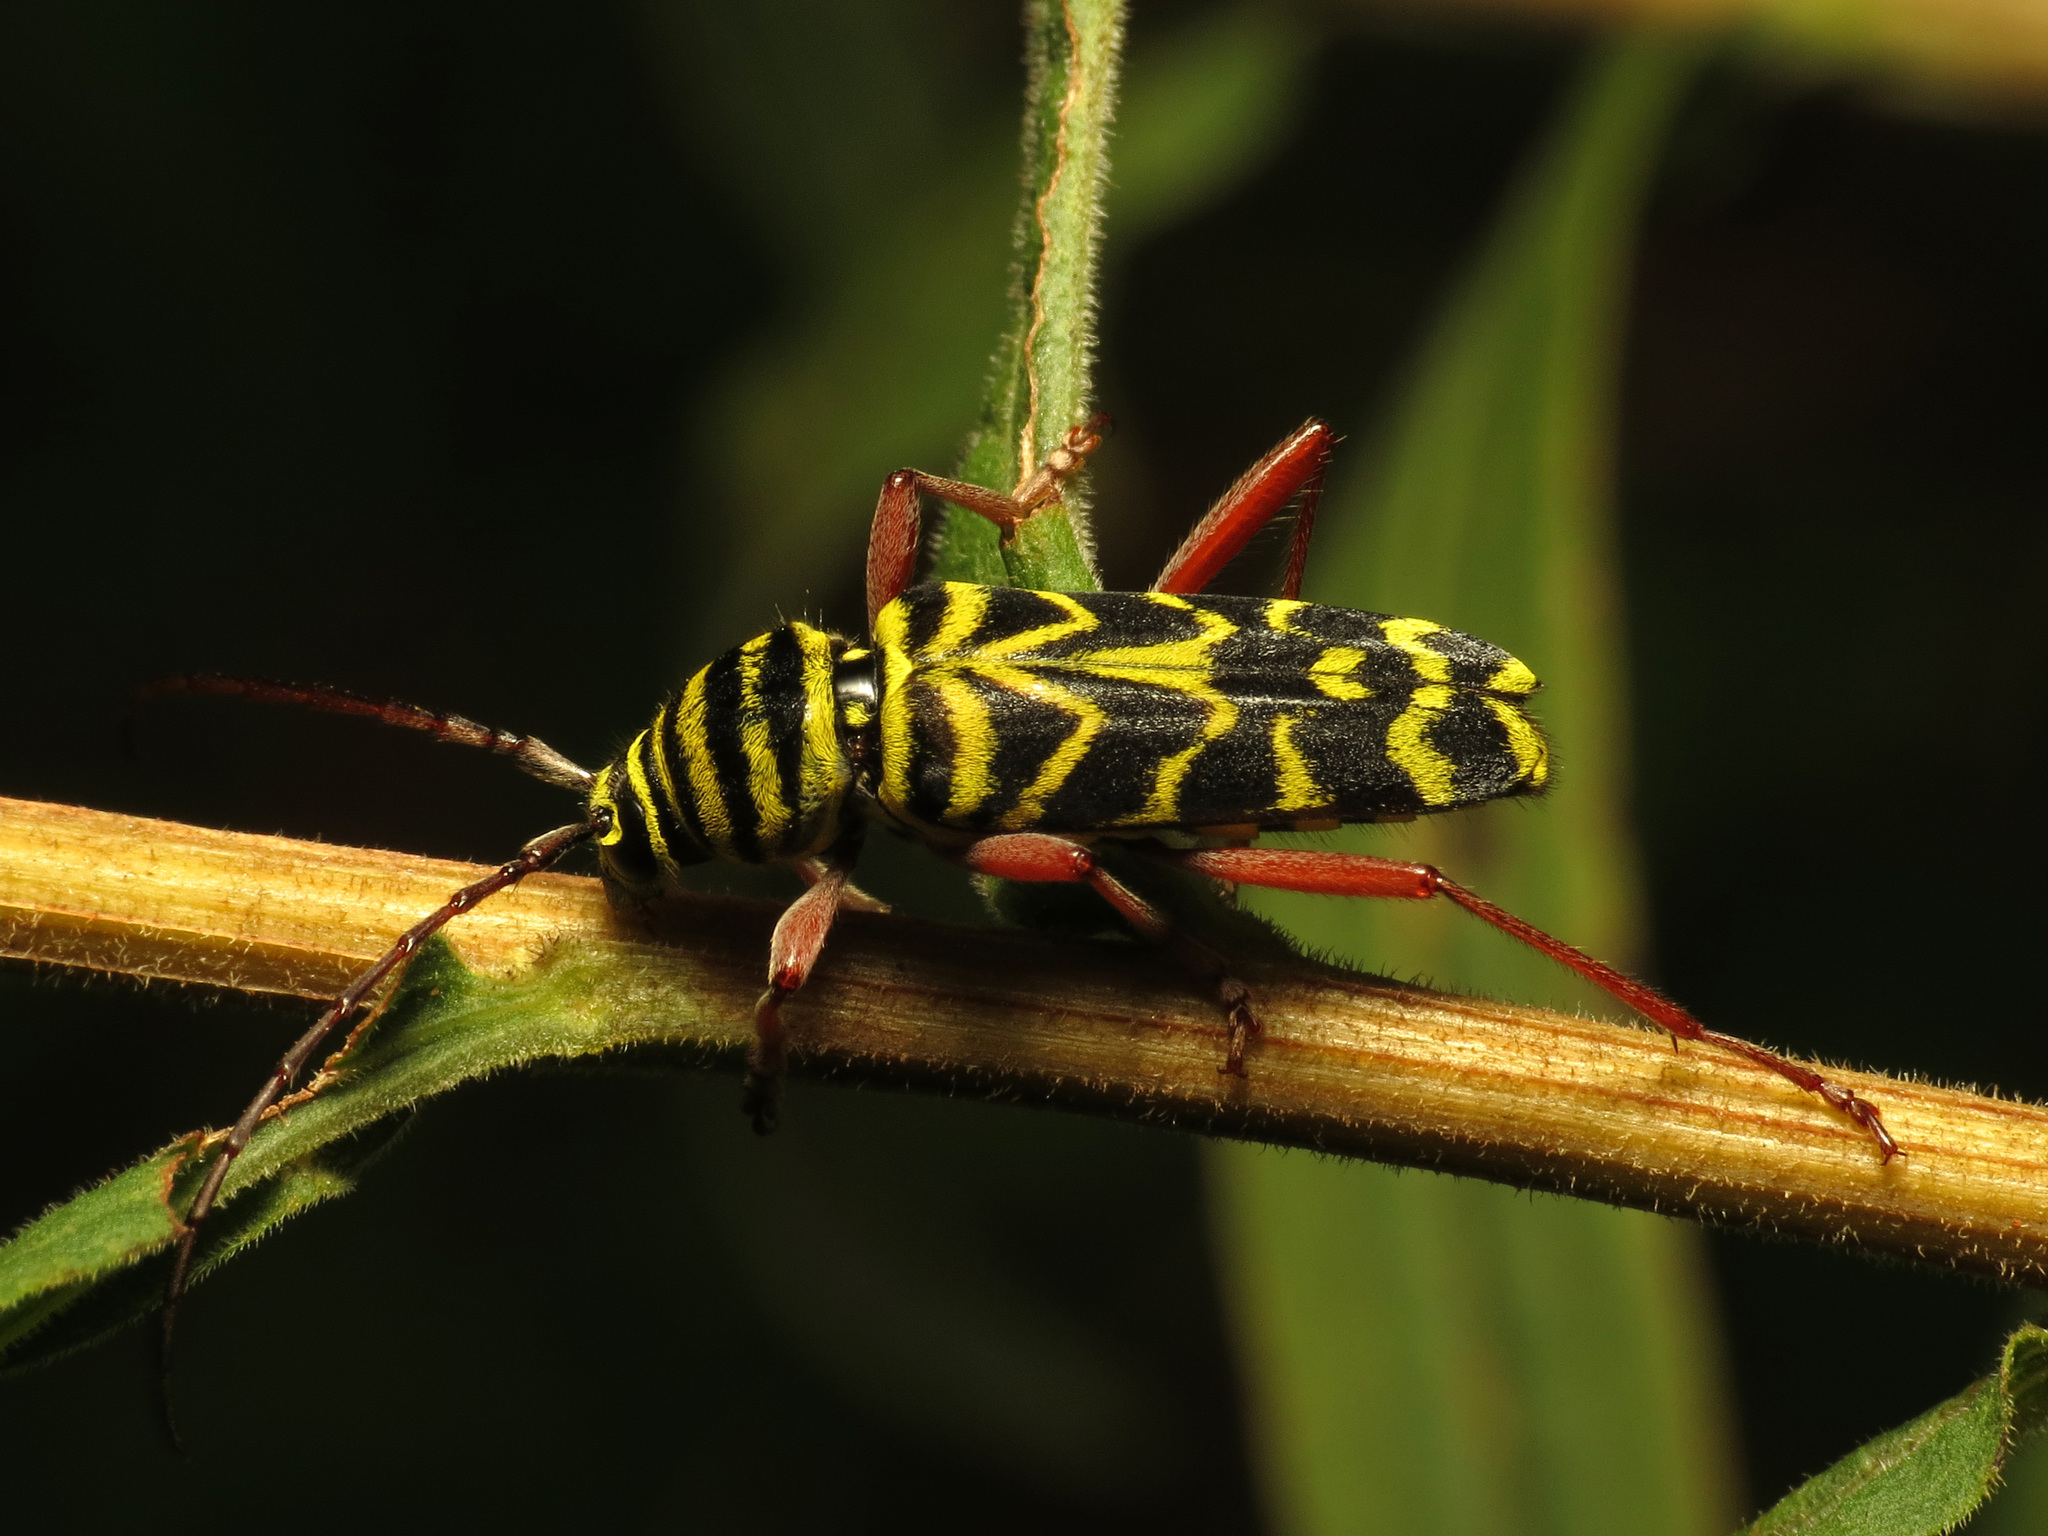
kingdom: Animalia
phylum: Arthropoda
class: Insecta
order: Coleoptera
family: Cerambycidae
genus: Megacyllene
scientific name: Megacyllene robiniae
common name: Locust borer
